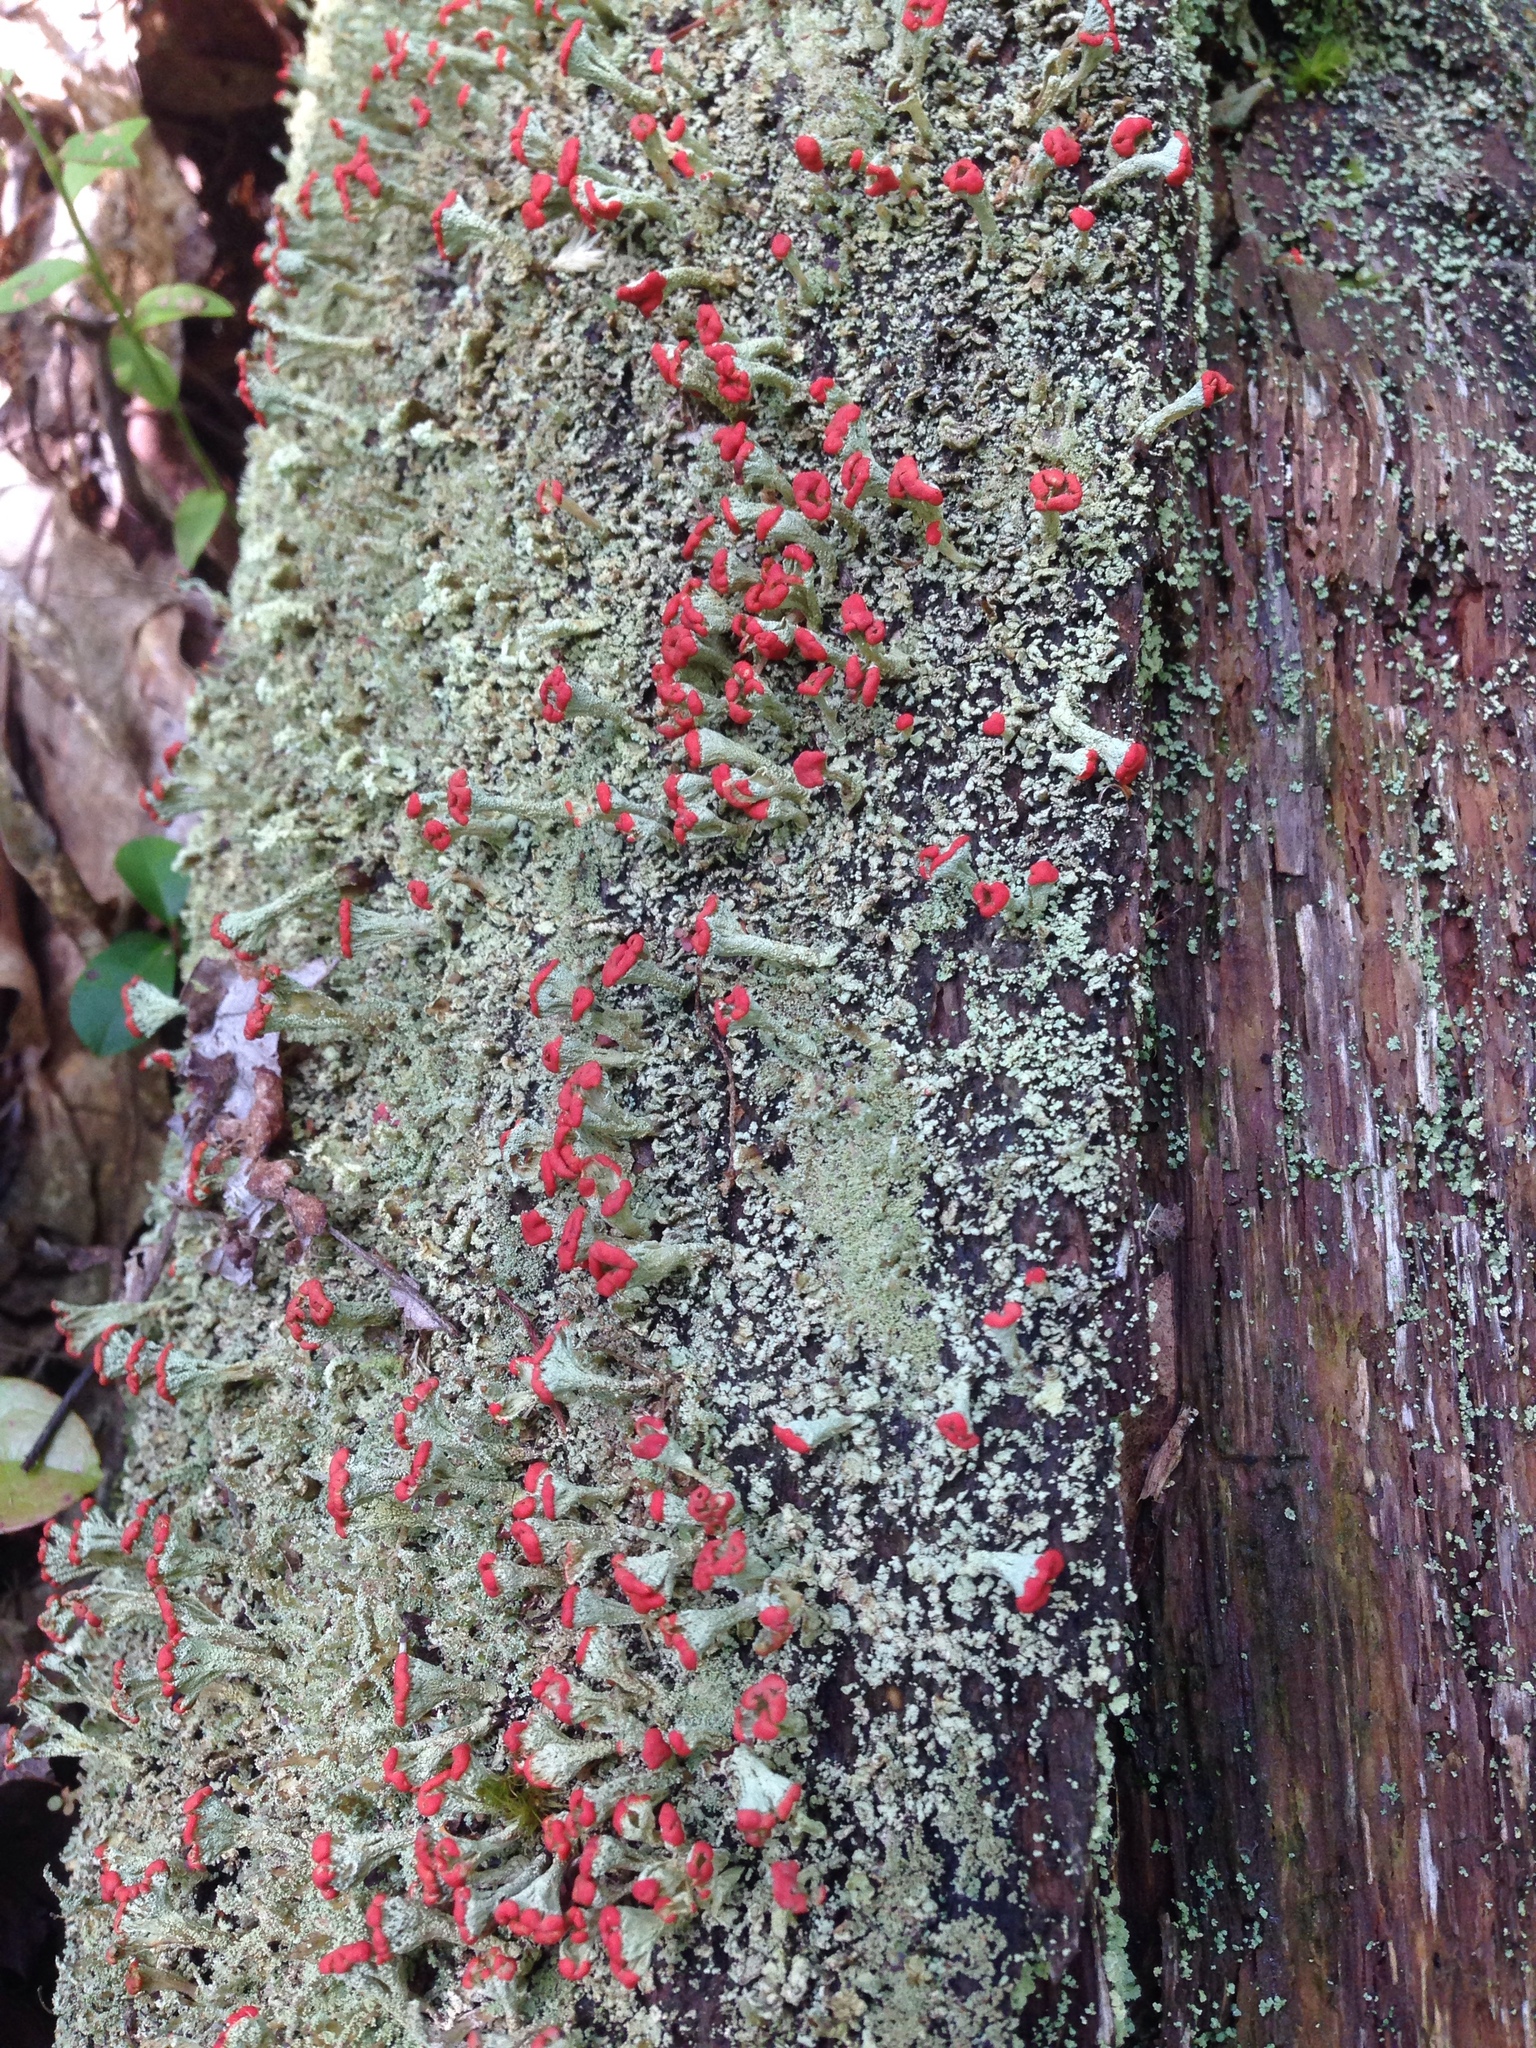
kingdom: Fungi
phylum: Ascomycota
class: Lecanoromycetes
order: Lecanorales
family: Cladoniaceae
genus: Cladonia
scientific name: Cladonia cristatella
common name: British soldier lichen
